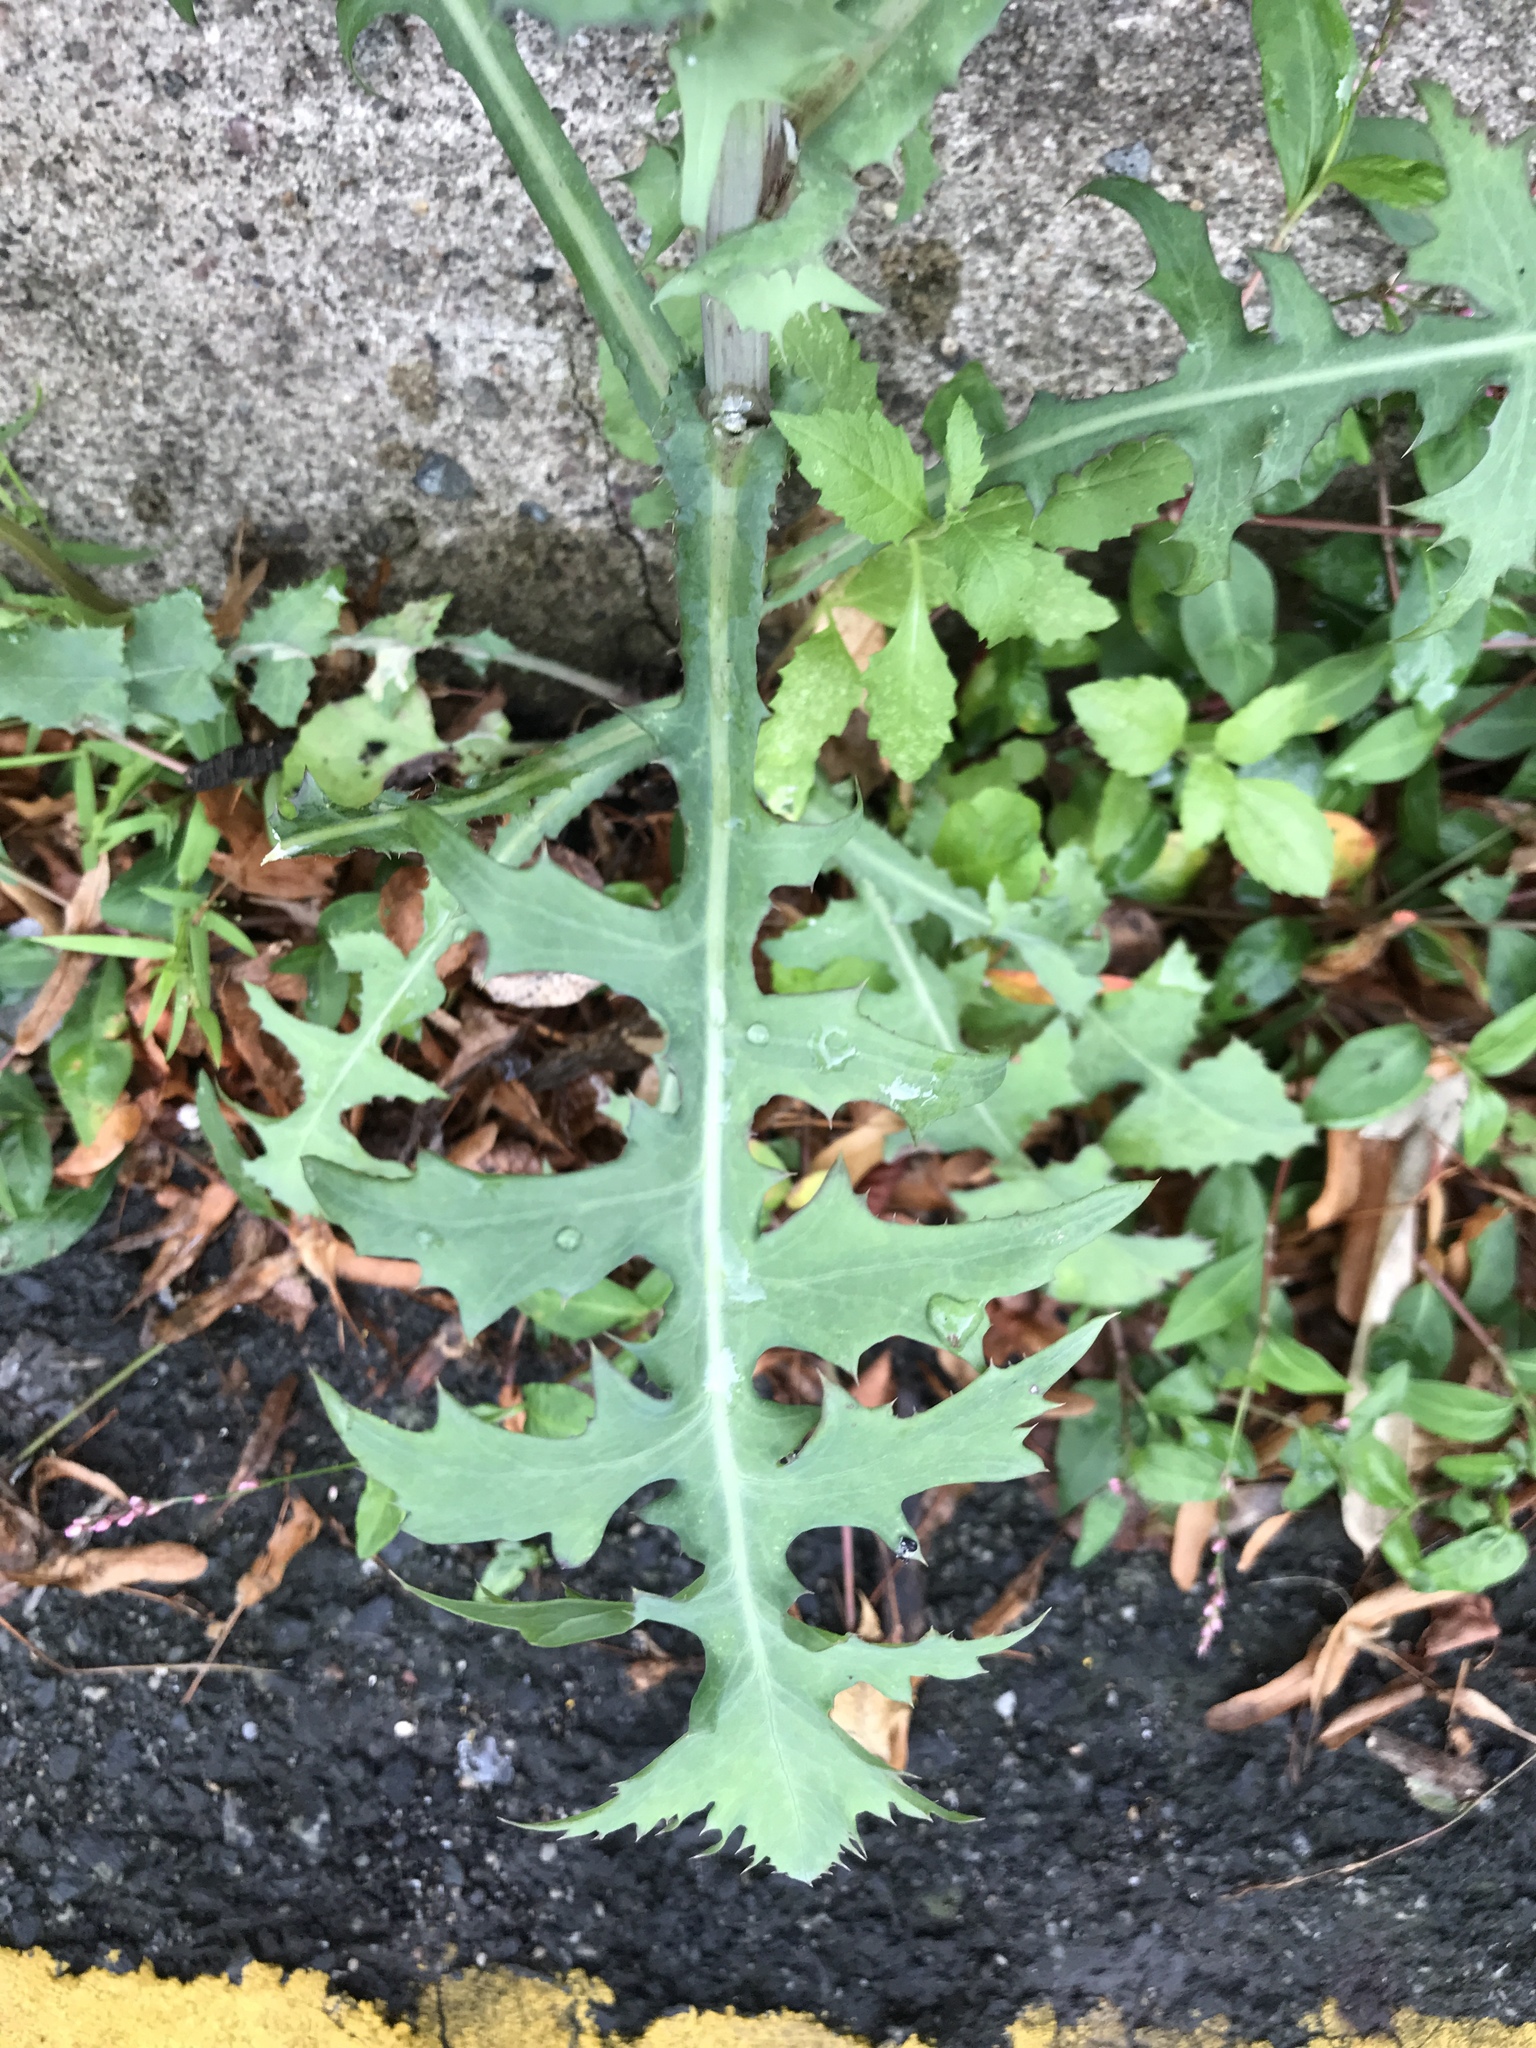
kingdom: Plantae
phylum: Tracheophyta
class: Magnoliopsida
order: Asterales
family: Asteraceae
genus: Sonchus
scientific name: Sonchus oleraceus
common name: Common sowthistle
